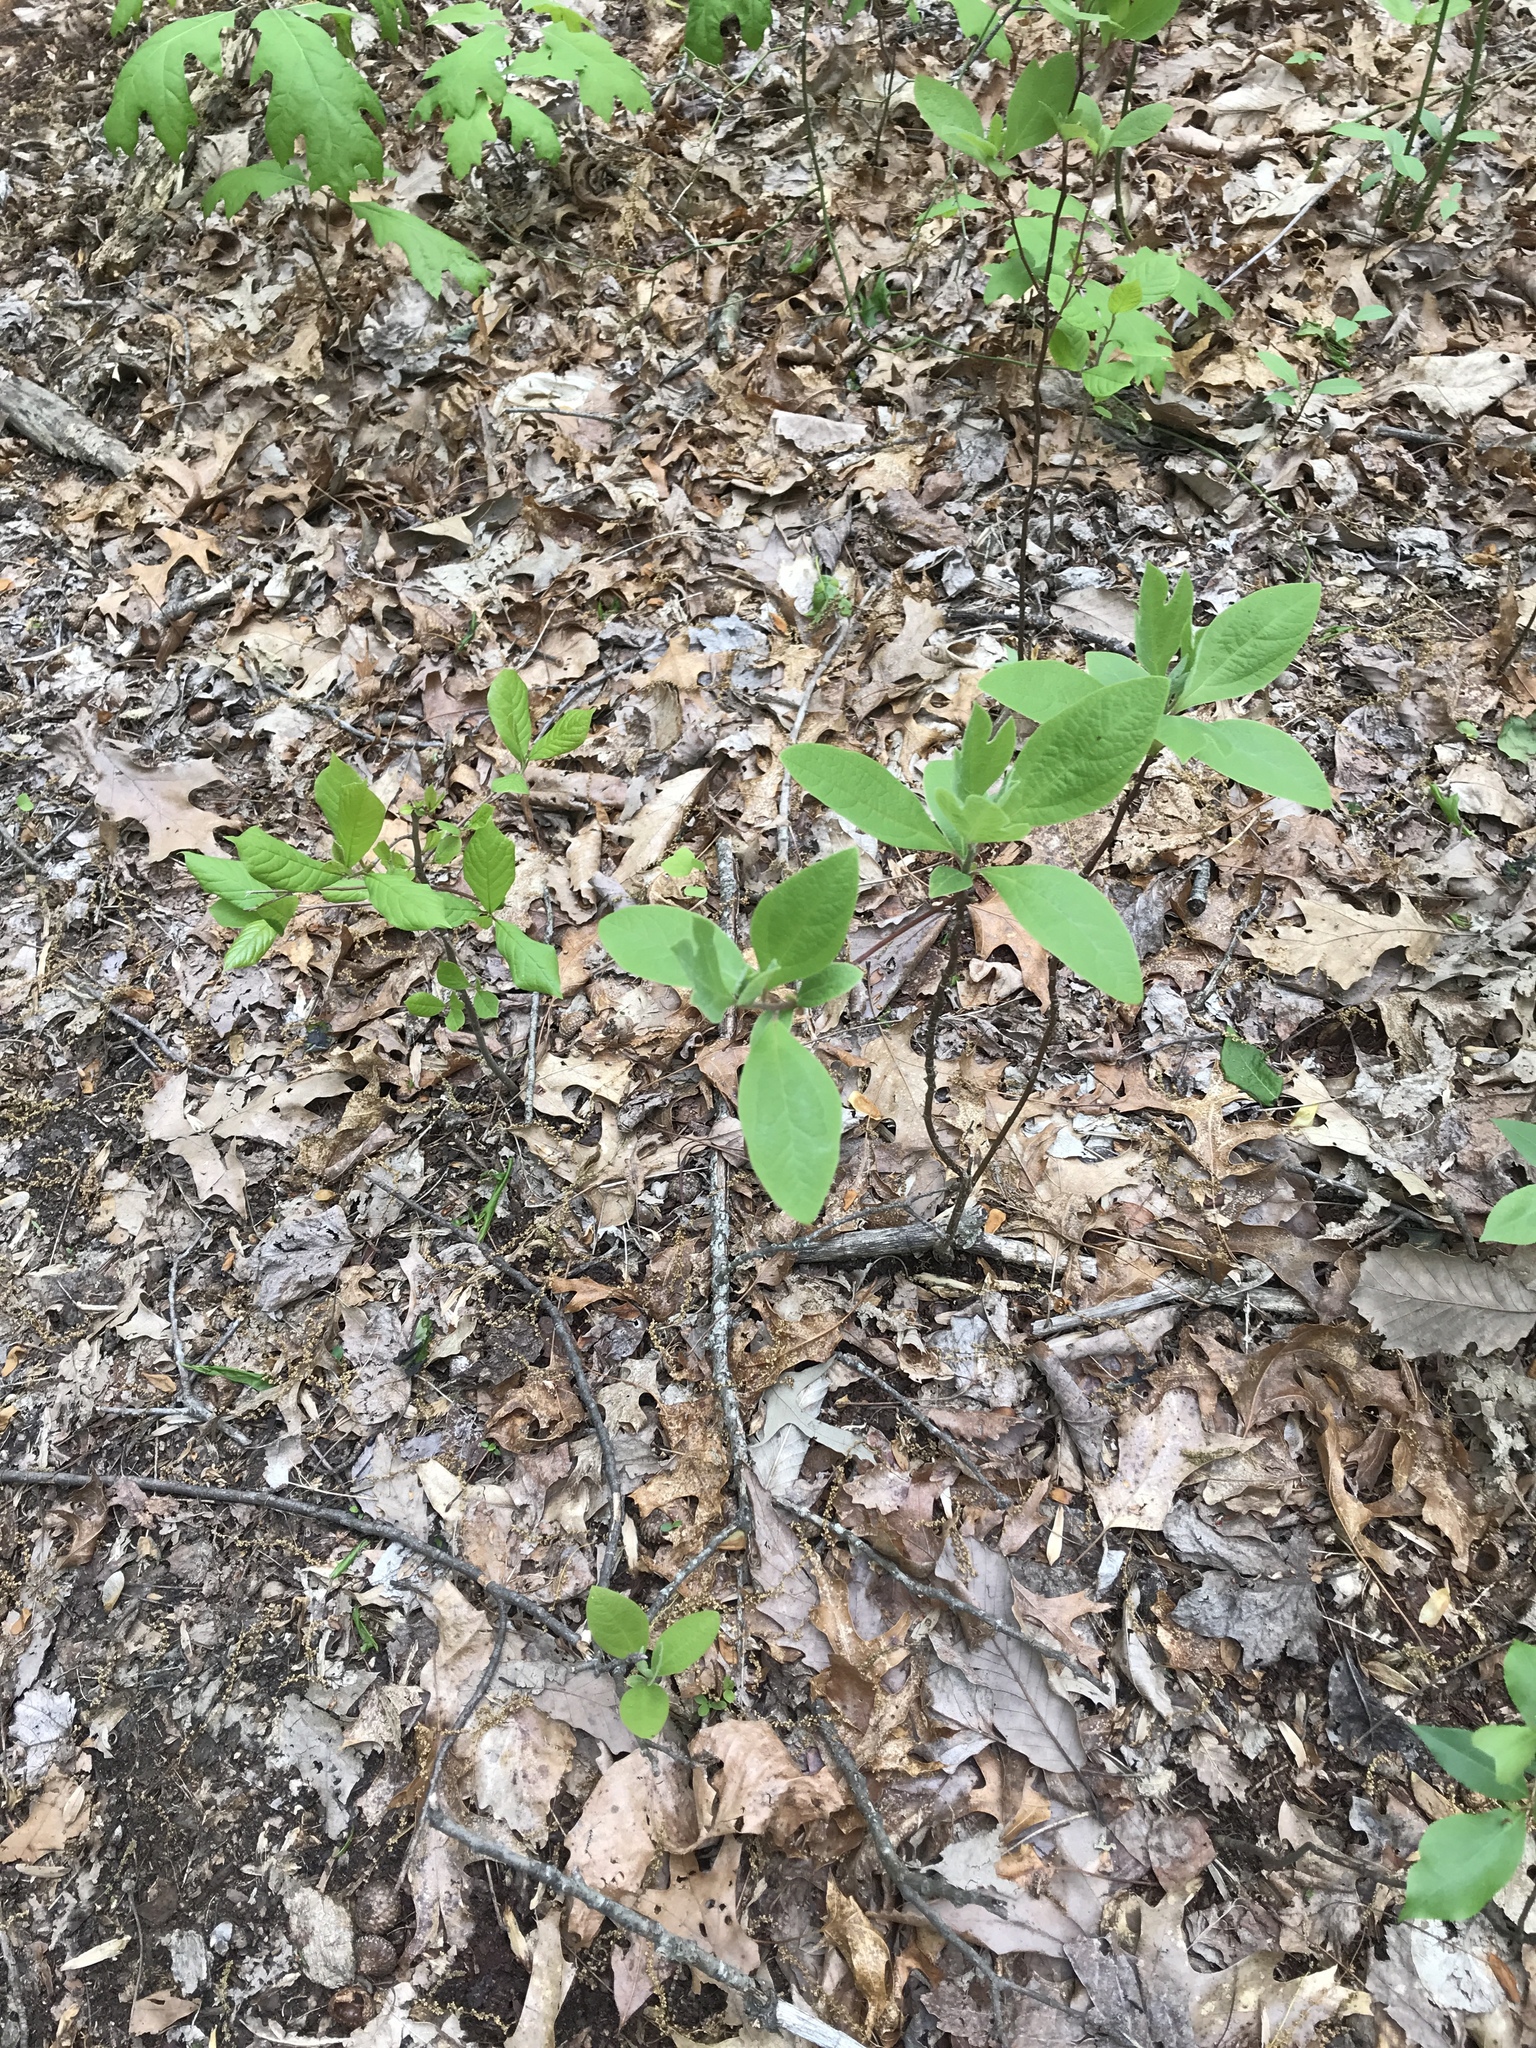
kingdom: Plantae
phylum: Tracheophyta
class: Magnoliopsida
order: Laurales
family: Lauraceae
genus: Sassafras
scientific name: Sassafras albidum
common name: Sassafras
